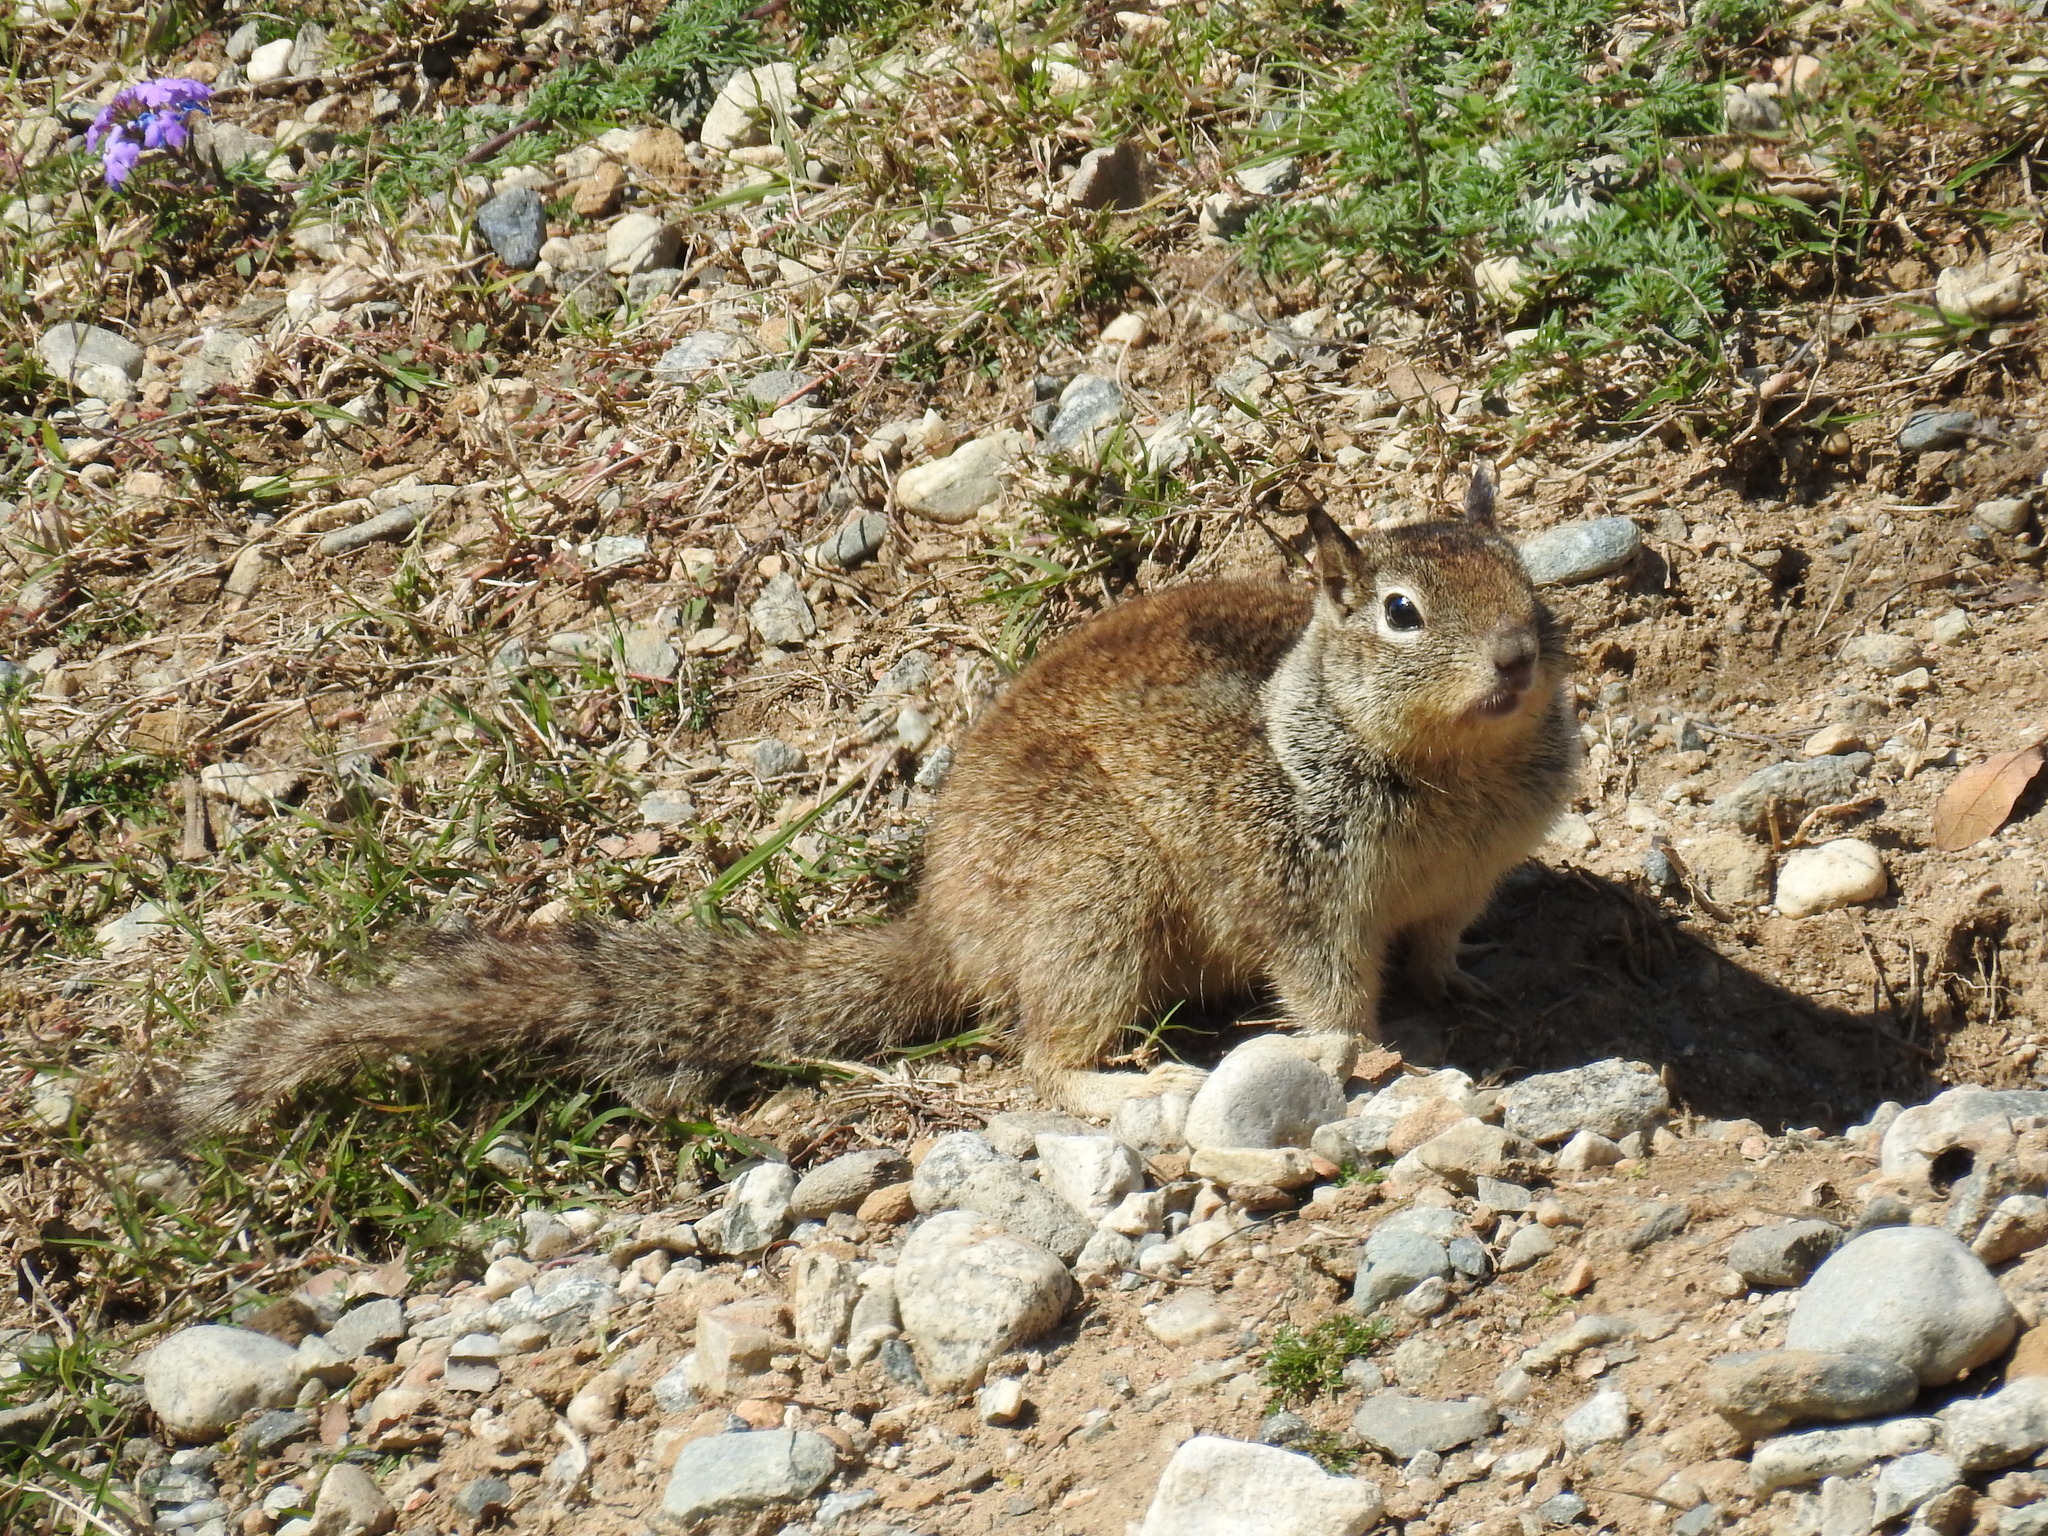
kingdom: Animalia
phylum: Chordata
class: Mammalia
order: Rodentia
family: Sciuridae
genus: Otospermophilus
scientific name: Otospermophilus beecheyi
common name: California ground squirrel
